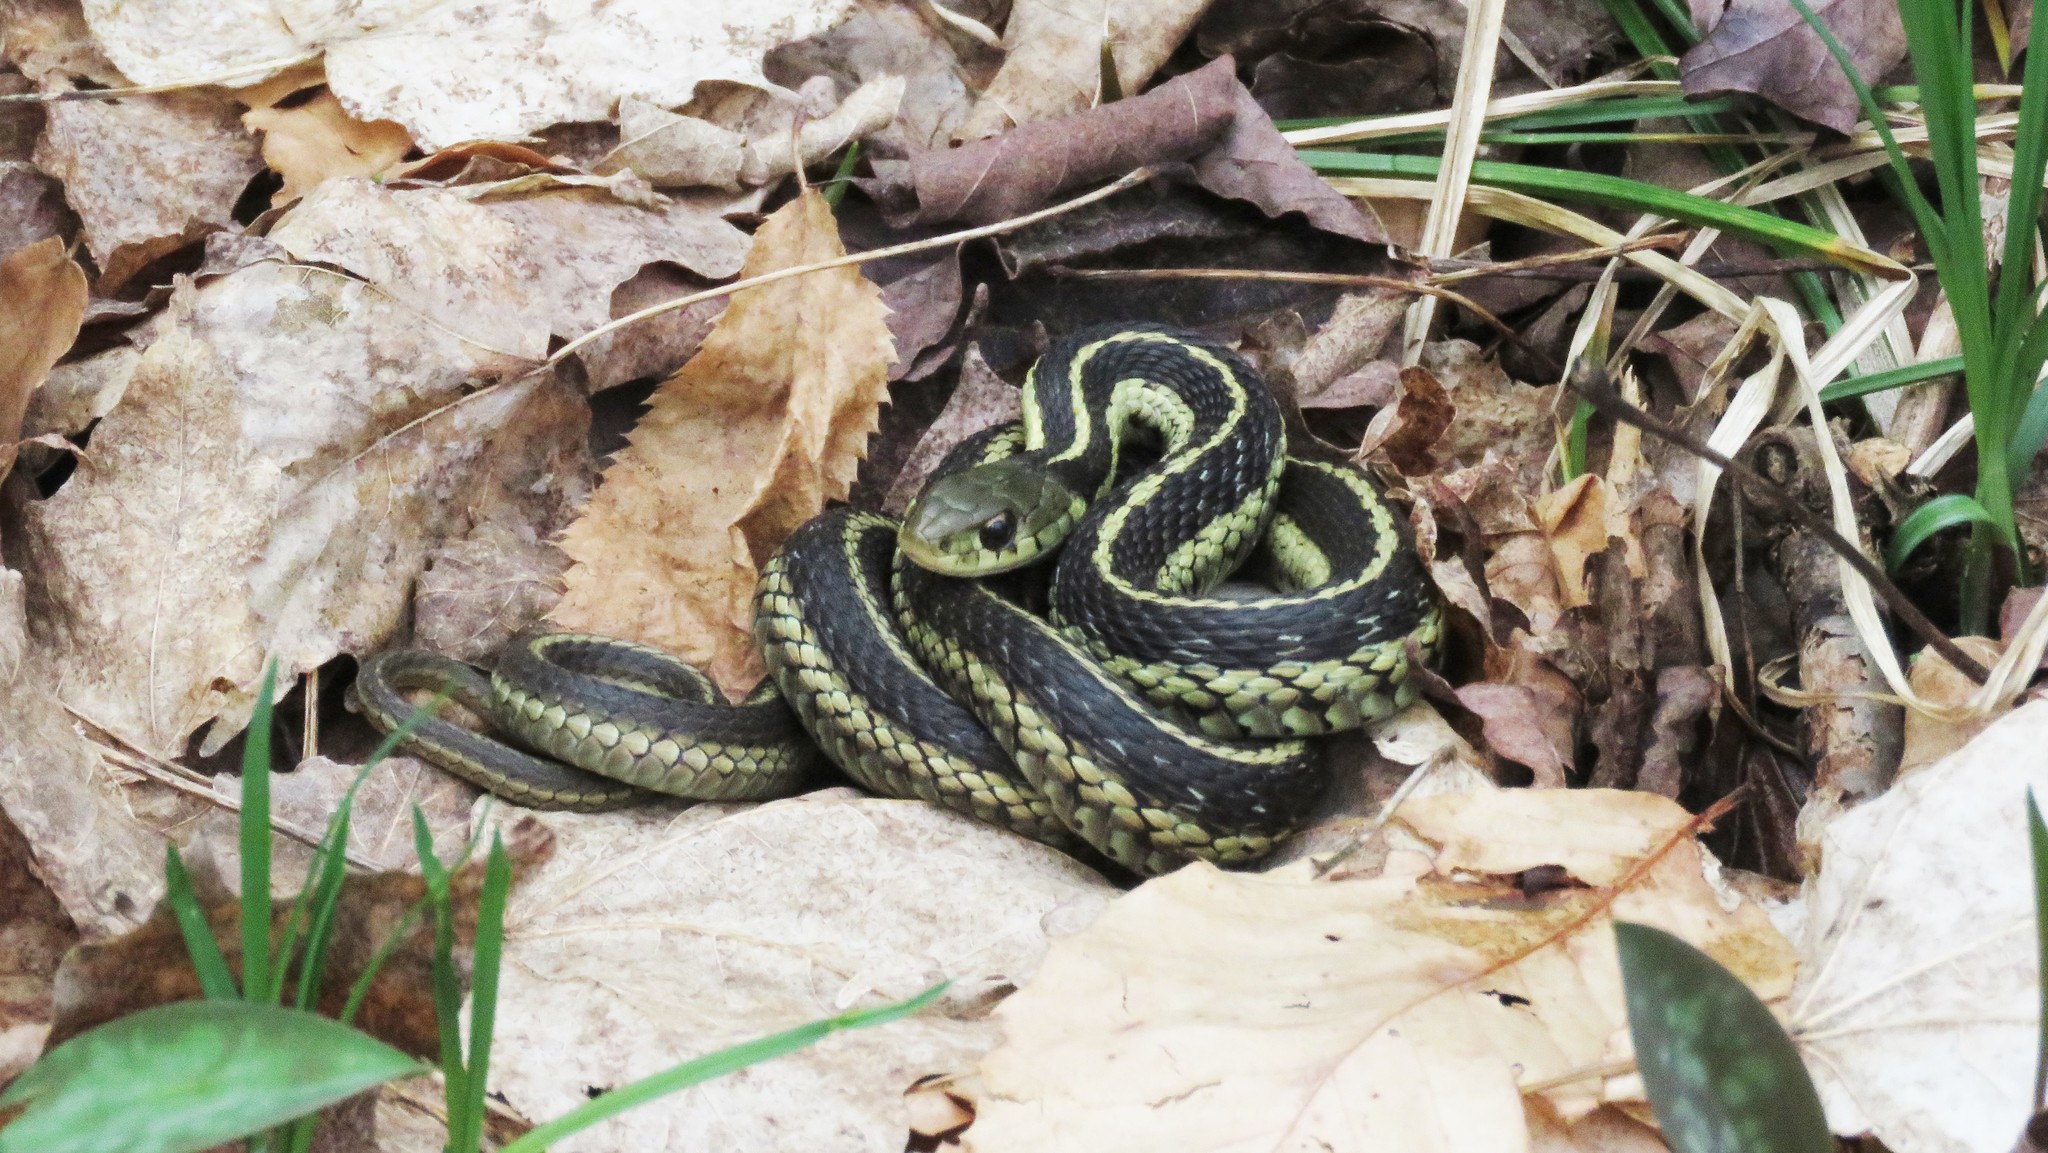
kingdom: Animalia
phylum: Chordata
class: Squamata
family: Colubridae
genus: Thamnophis
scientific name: Thamnophis sirtalis
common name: Common garter snake
